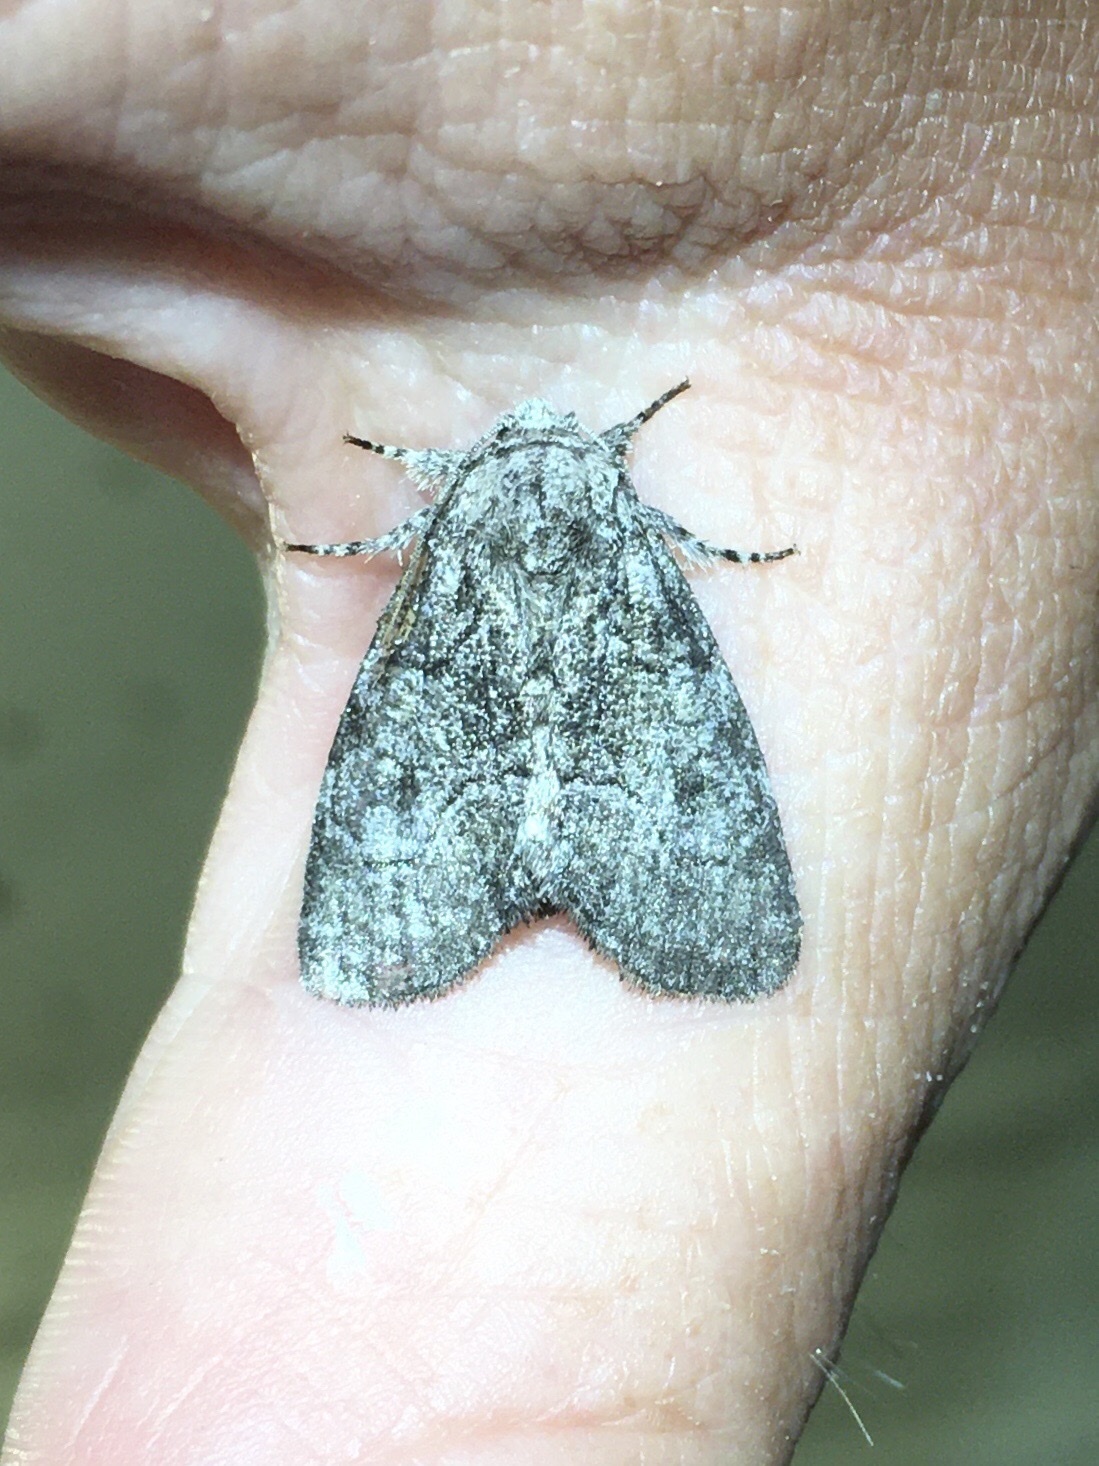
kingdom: Animalia
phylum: Arthropoda
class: Insecta
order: Lepidoptera
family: Noctuidae
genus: Raphia
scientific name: Raphia frater
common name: Brother
